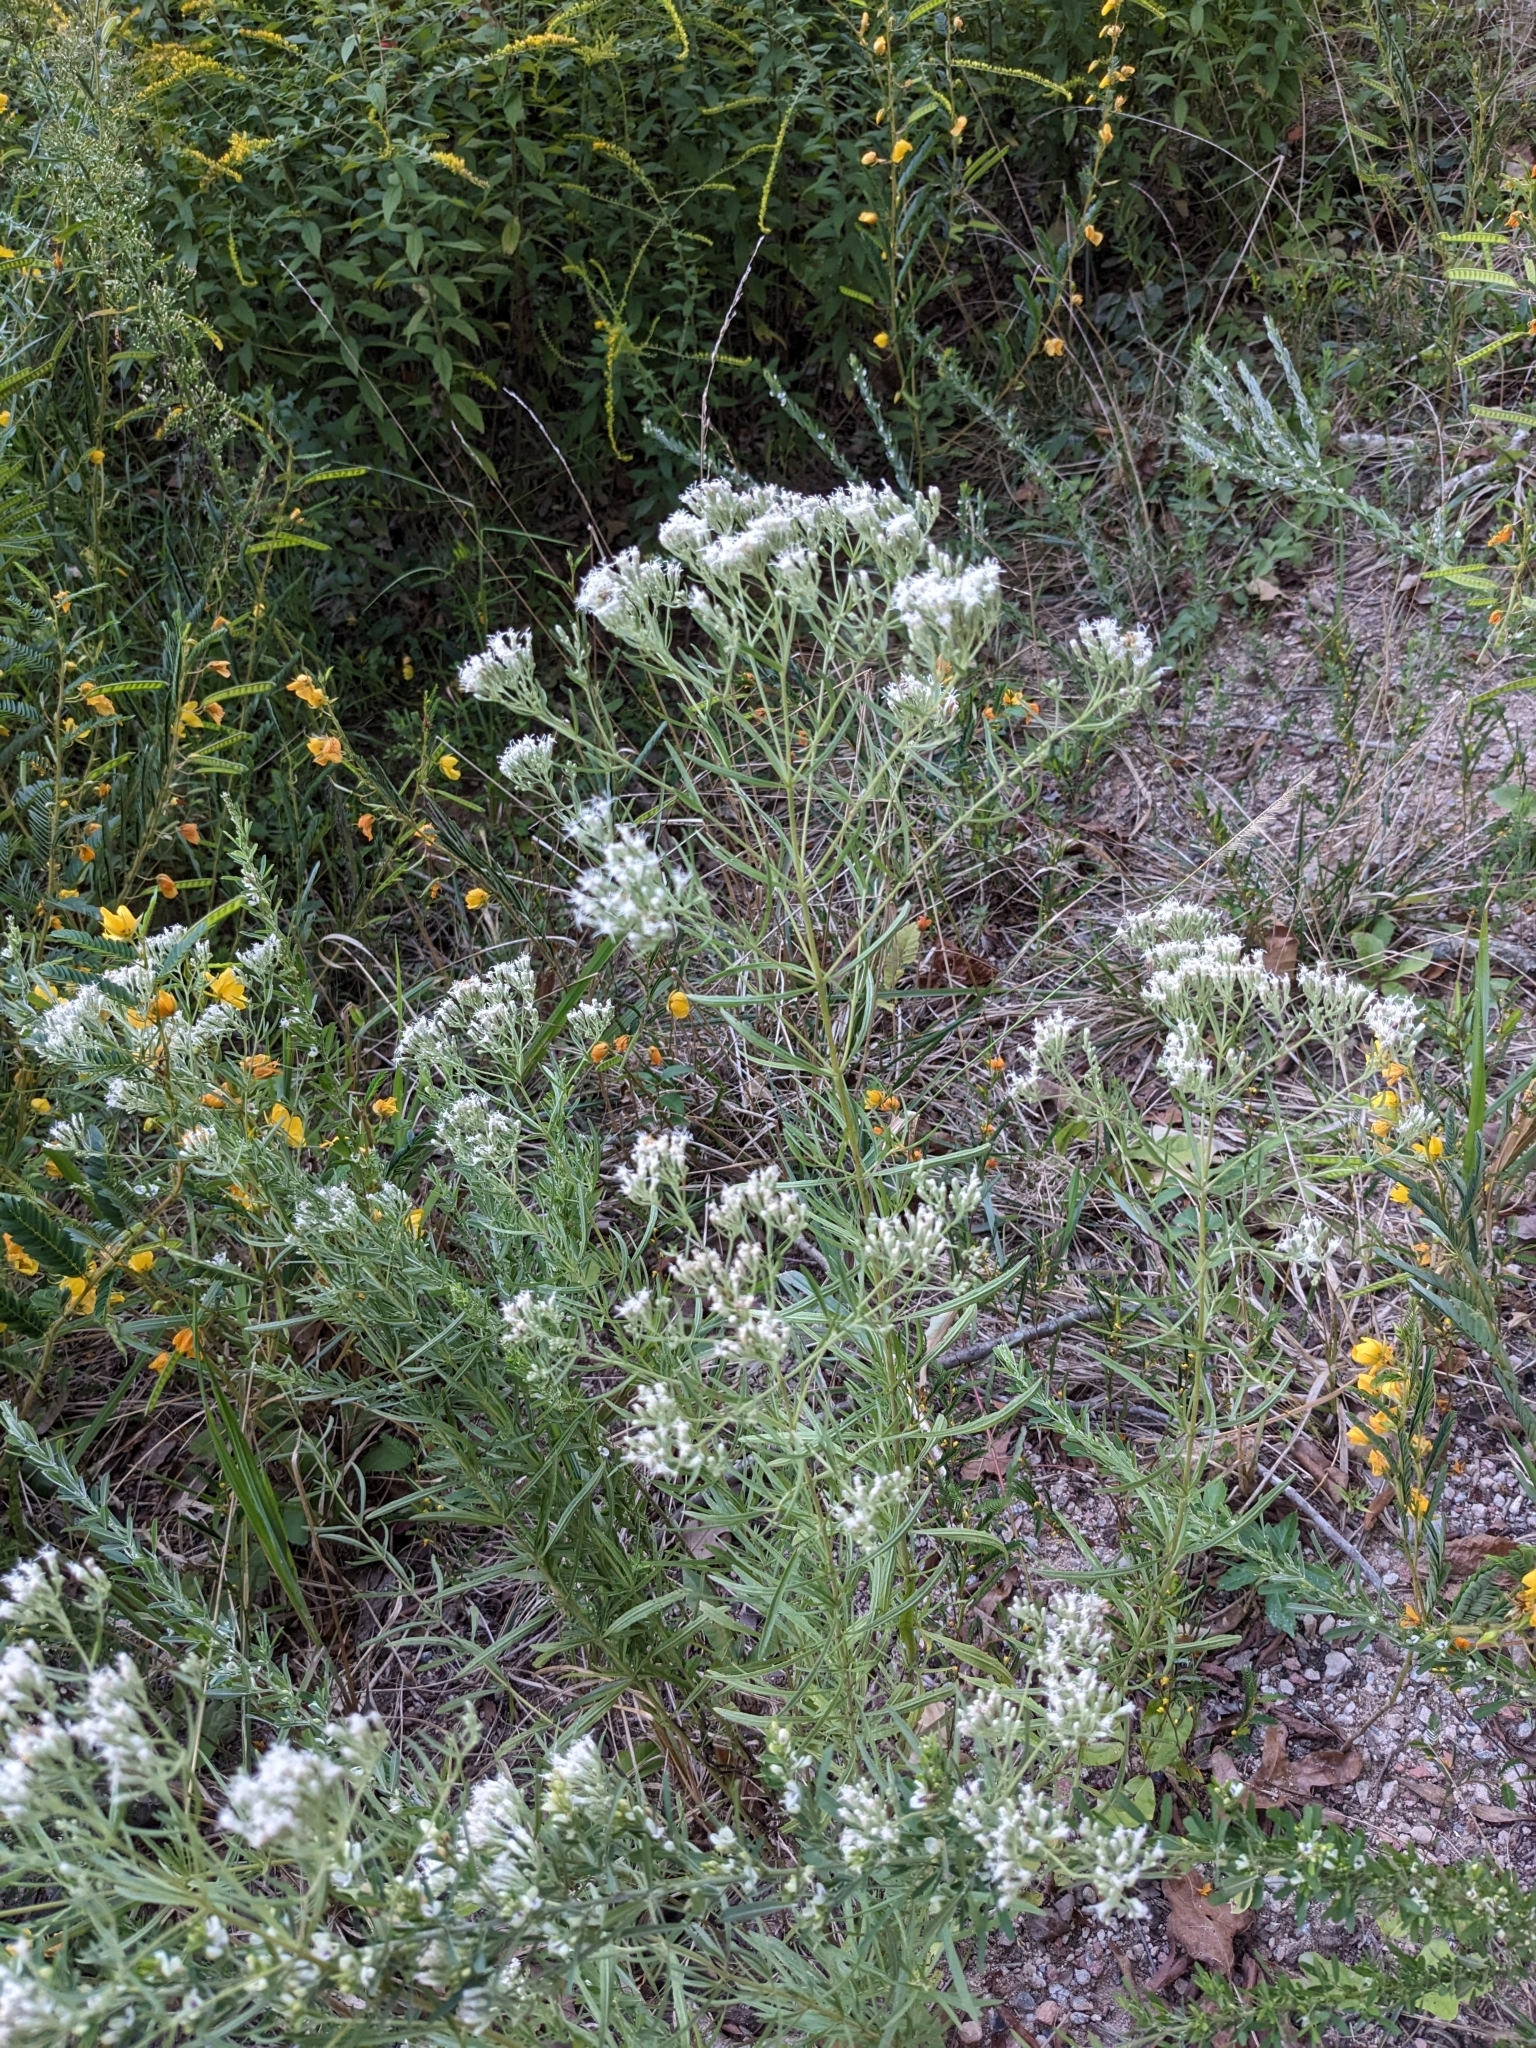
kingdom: Plantae
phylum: Tracheophyta
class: Magnoliopsida
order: Asterales
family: Asteraceae
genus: Eupatorium
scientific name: Eupatorium hyssopifolium
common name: Hyssop-leaf thoroughwort
